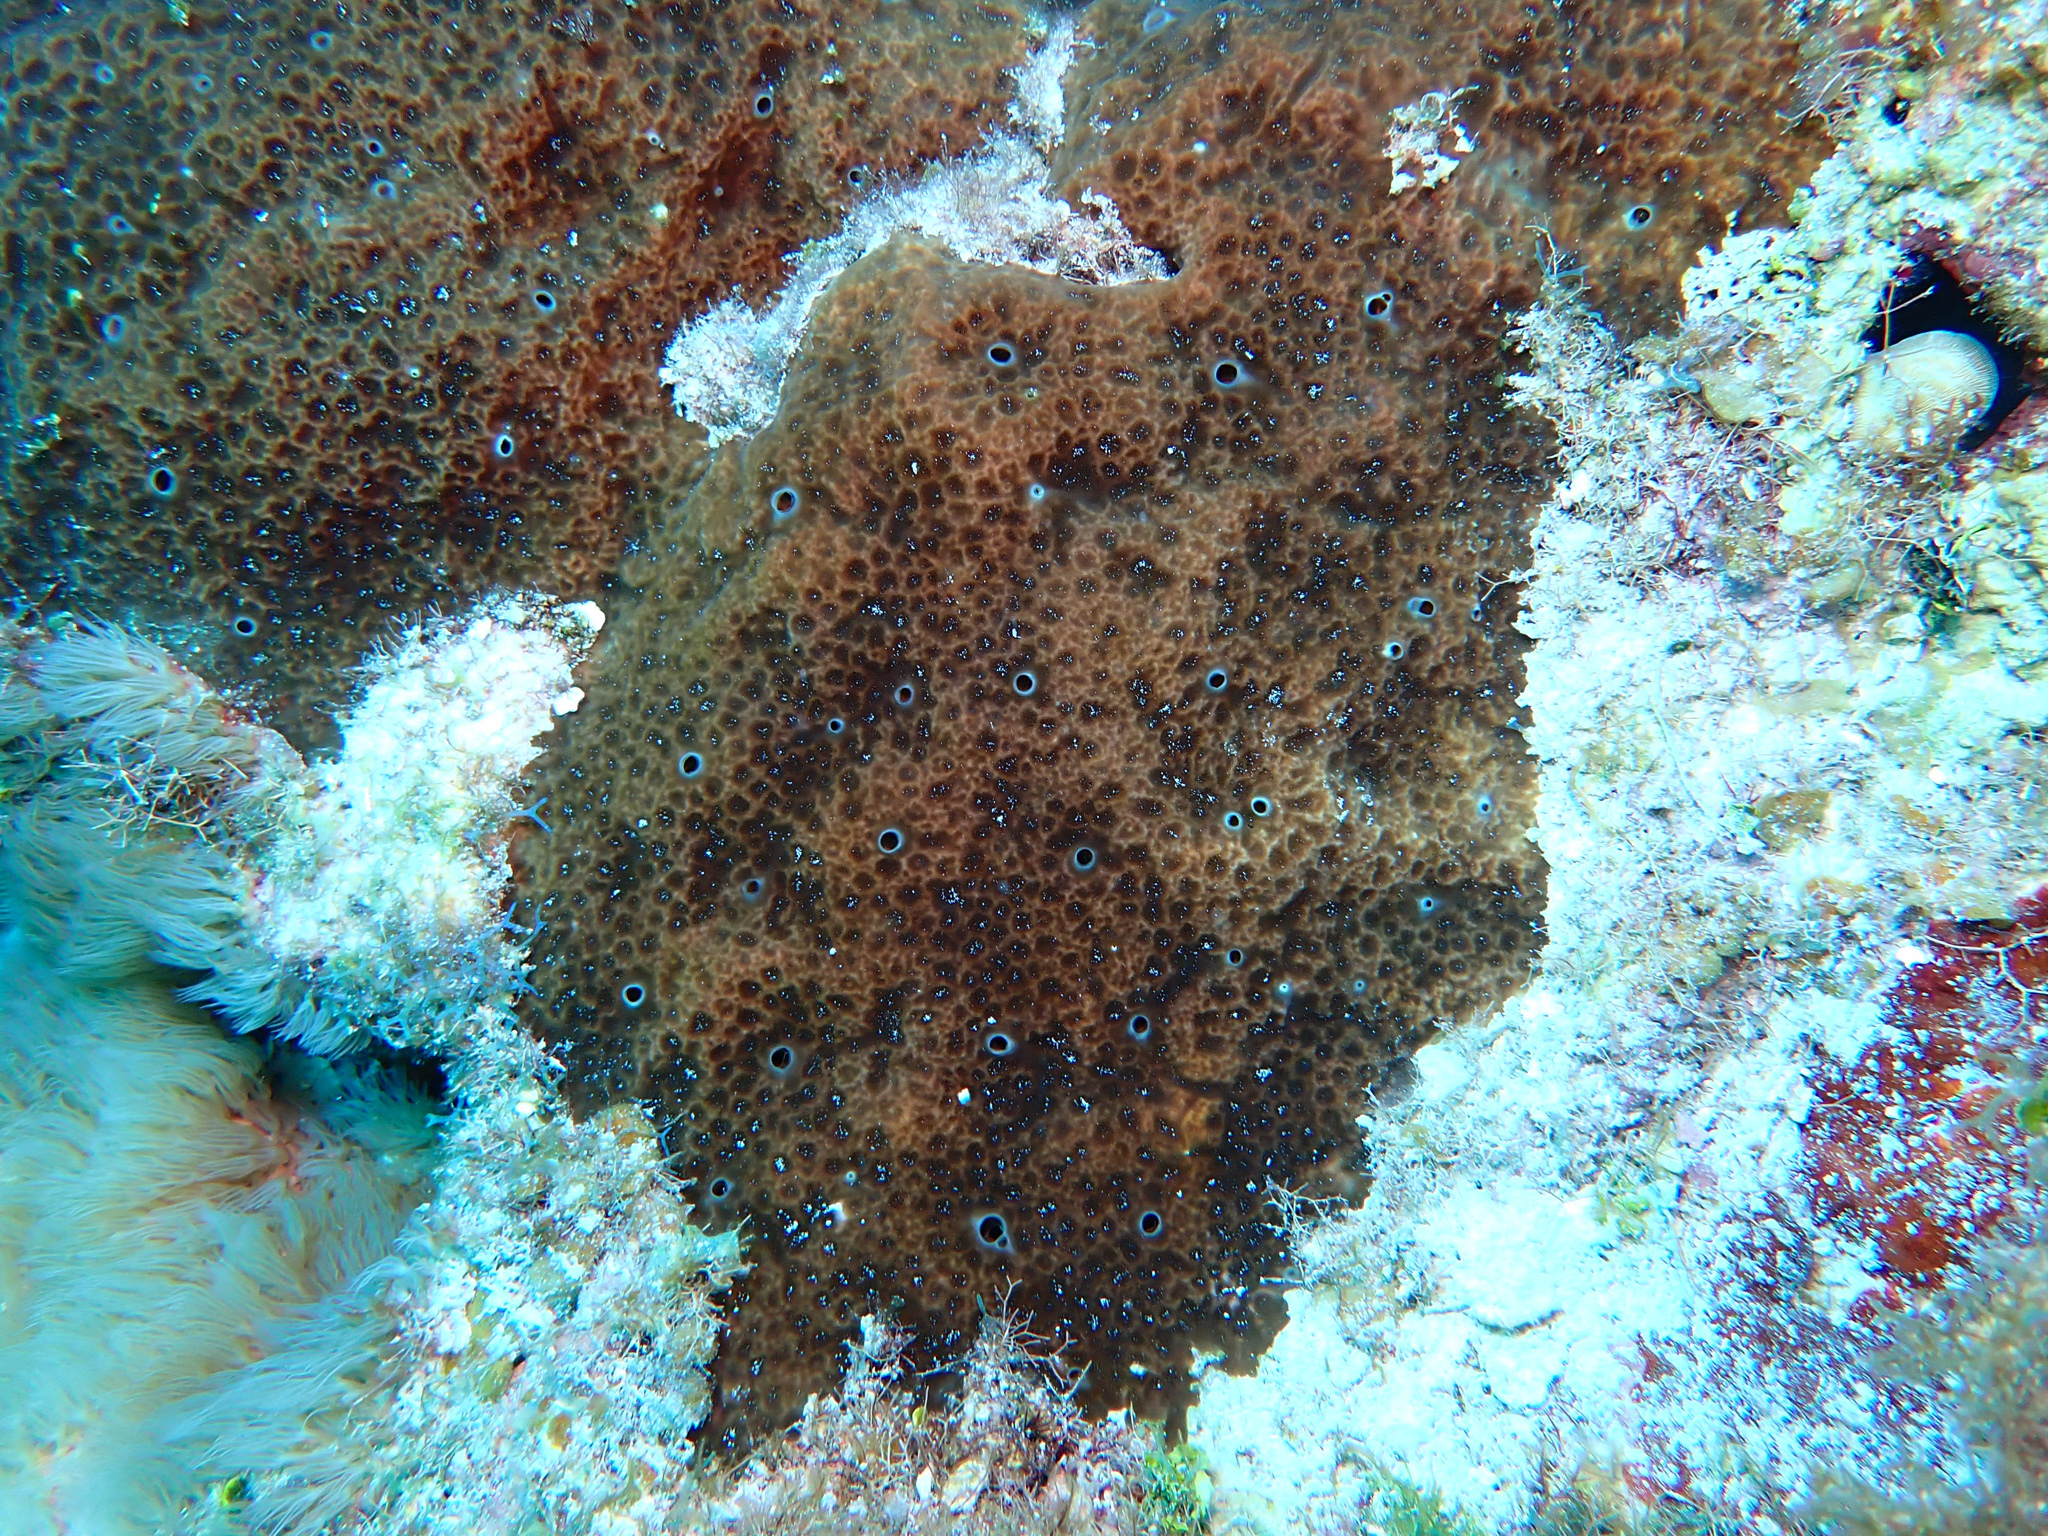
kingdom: Animalia
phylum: Porifera
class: Demospongiae
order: Clionaida
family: Clionaidae
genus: Cliona
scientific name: Cliona caribbaea
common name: Green boring sponge
